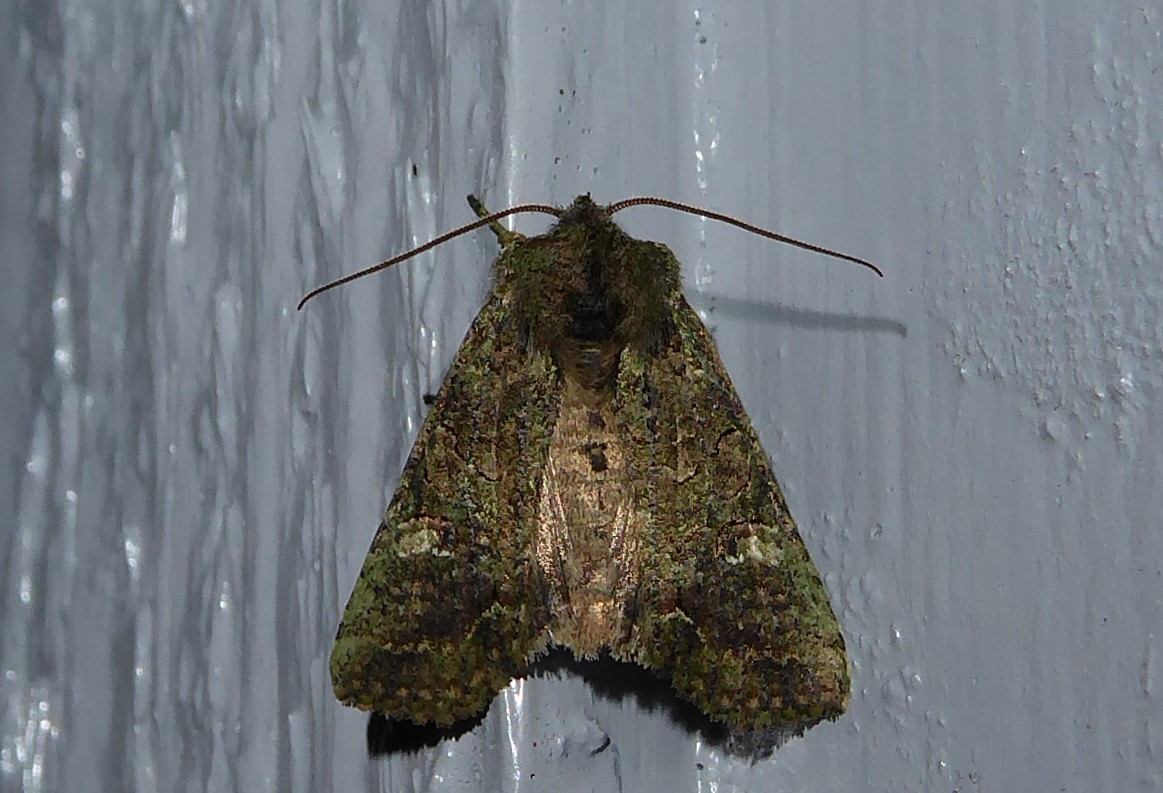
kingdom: Animalia
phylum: Arthropoda
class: Insecta
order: Lepidoptera
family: Noctuidae
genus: Meterana
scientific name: Meterana levis
